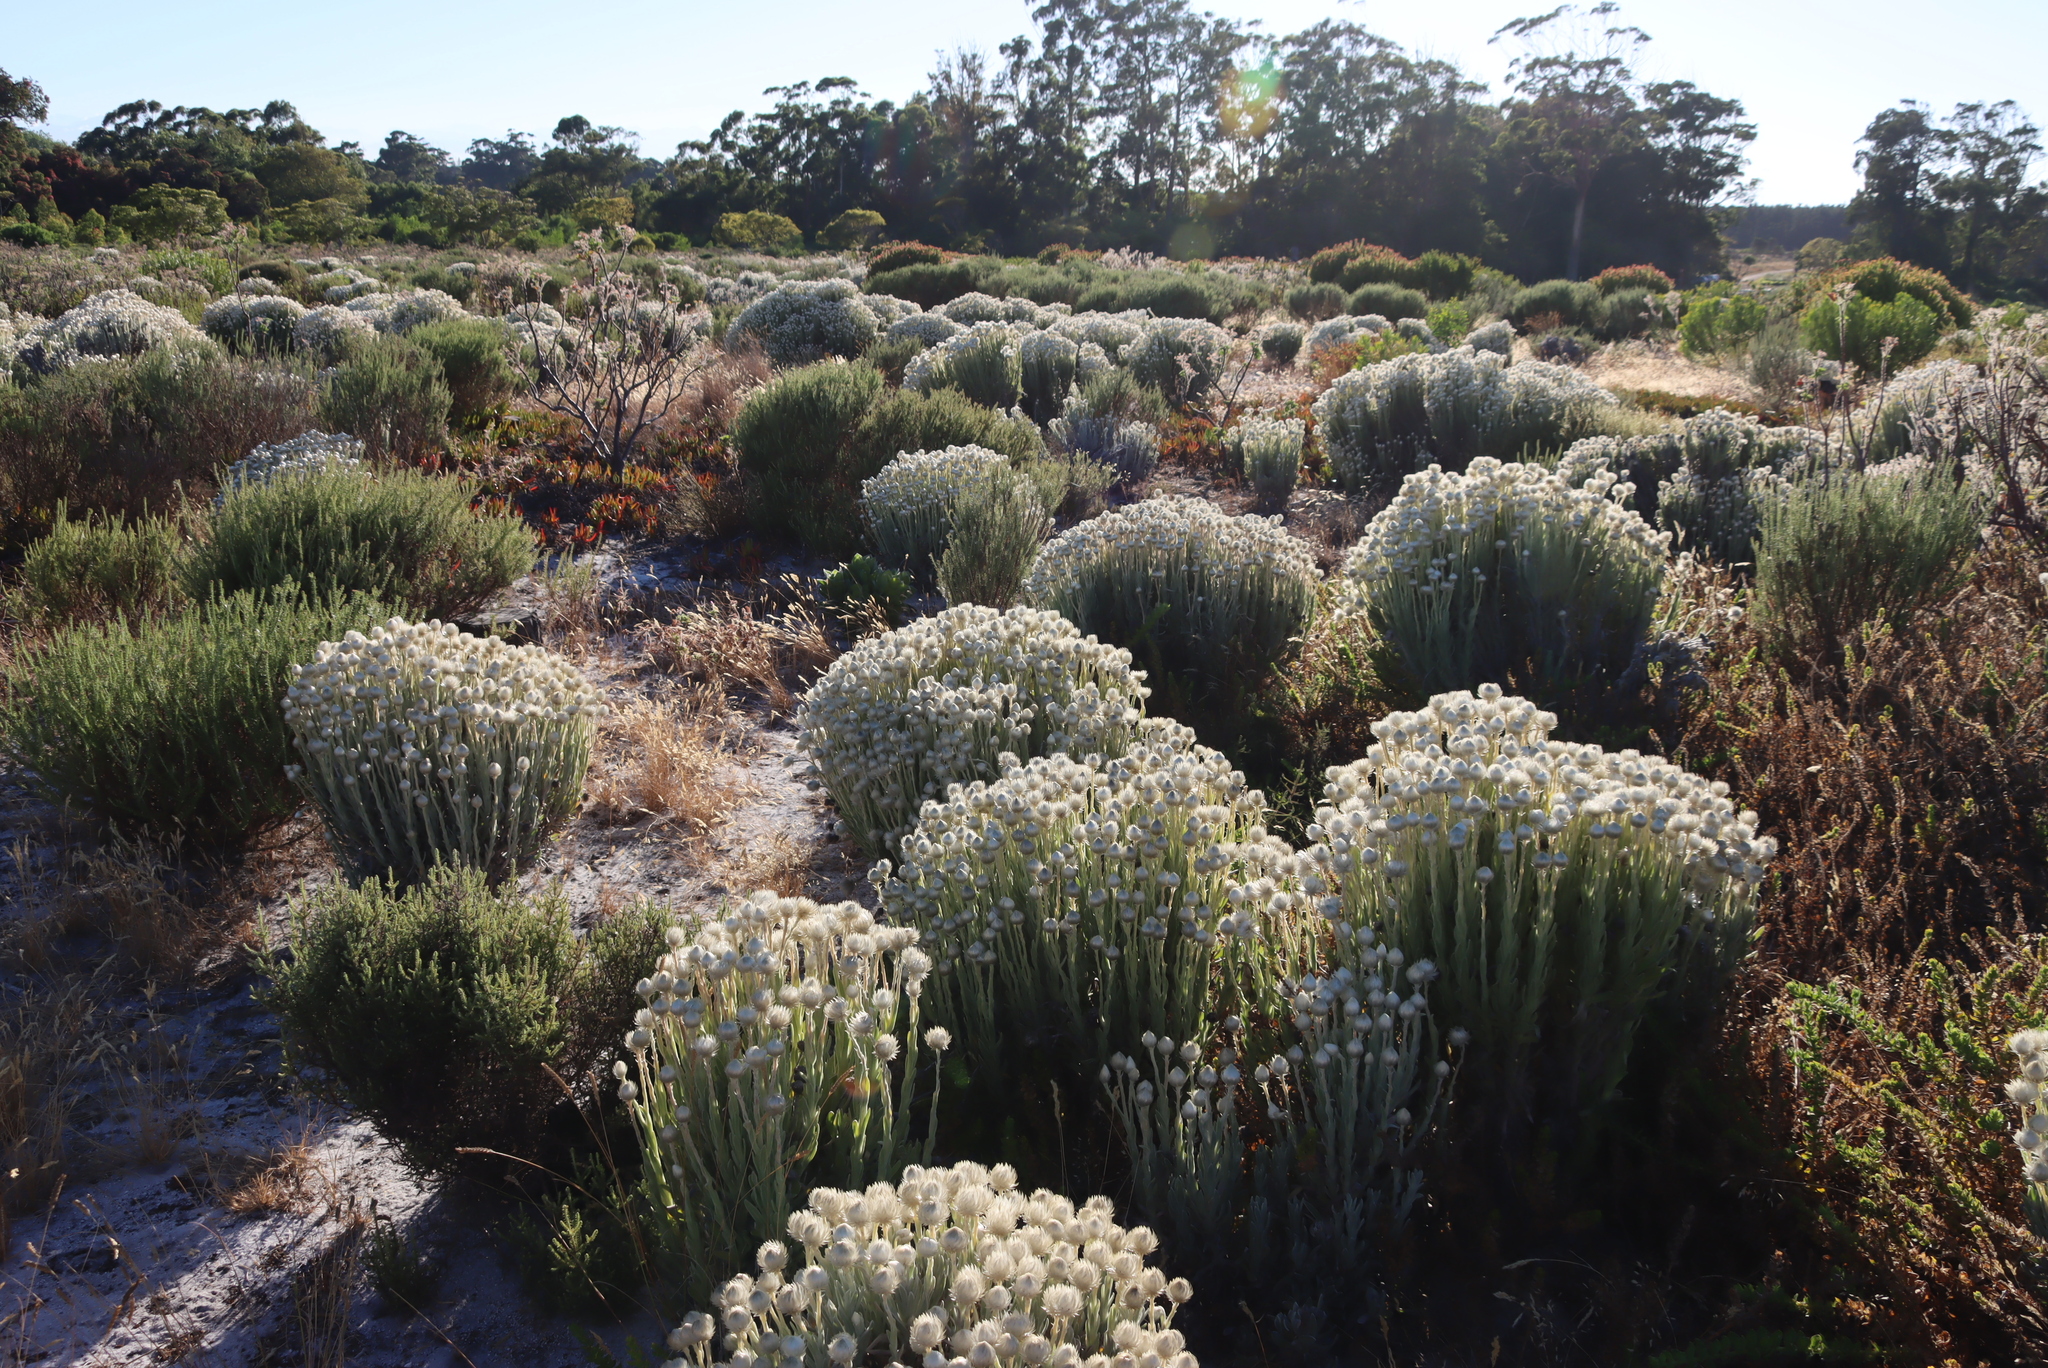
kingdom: Plantae
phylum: Tracheophyta
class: Magnoliopsida
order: Asterales
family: Asteraceae
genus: Syncarpha
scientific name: Syncarpha vestita
